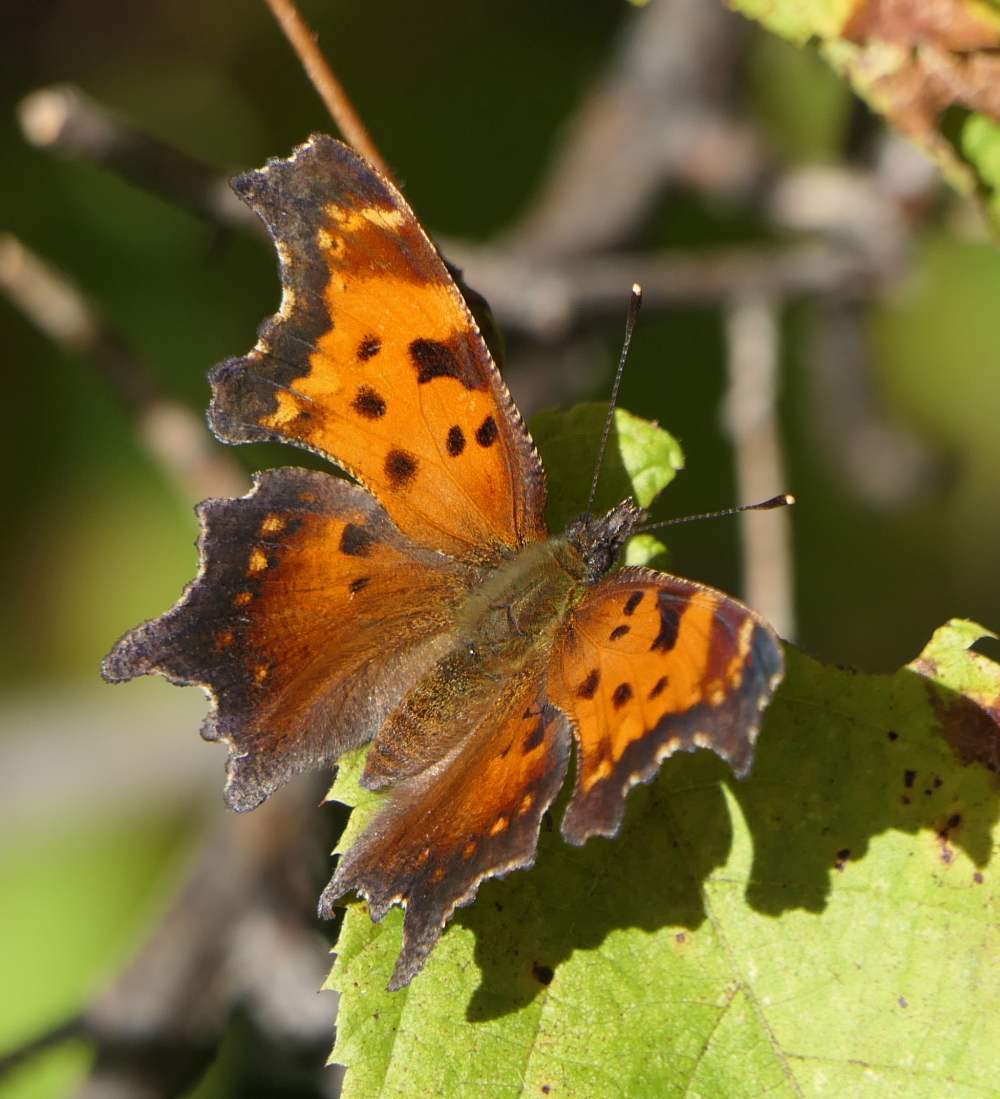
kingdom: Animalia
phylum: Arthropoda
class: Insecta
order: Lepidoptera
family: Nymphalidae
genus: Polygonia
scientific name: Polygonia progne
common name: Gray comma
